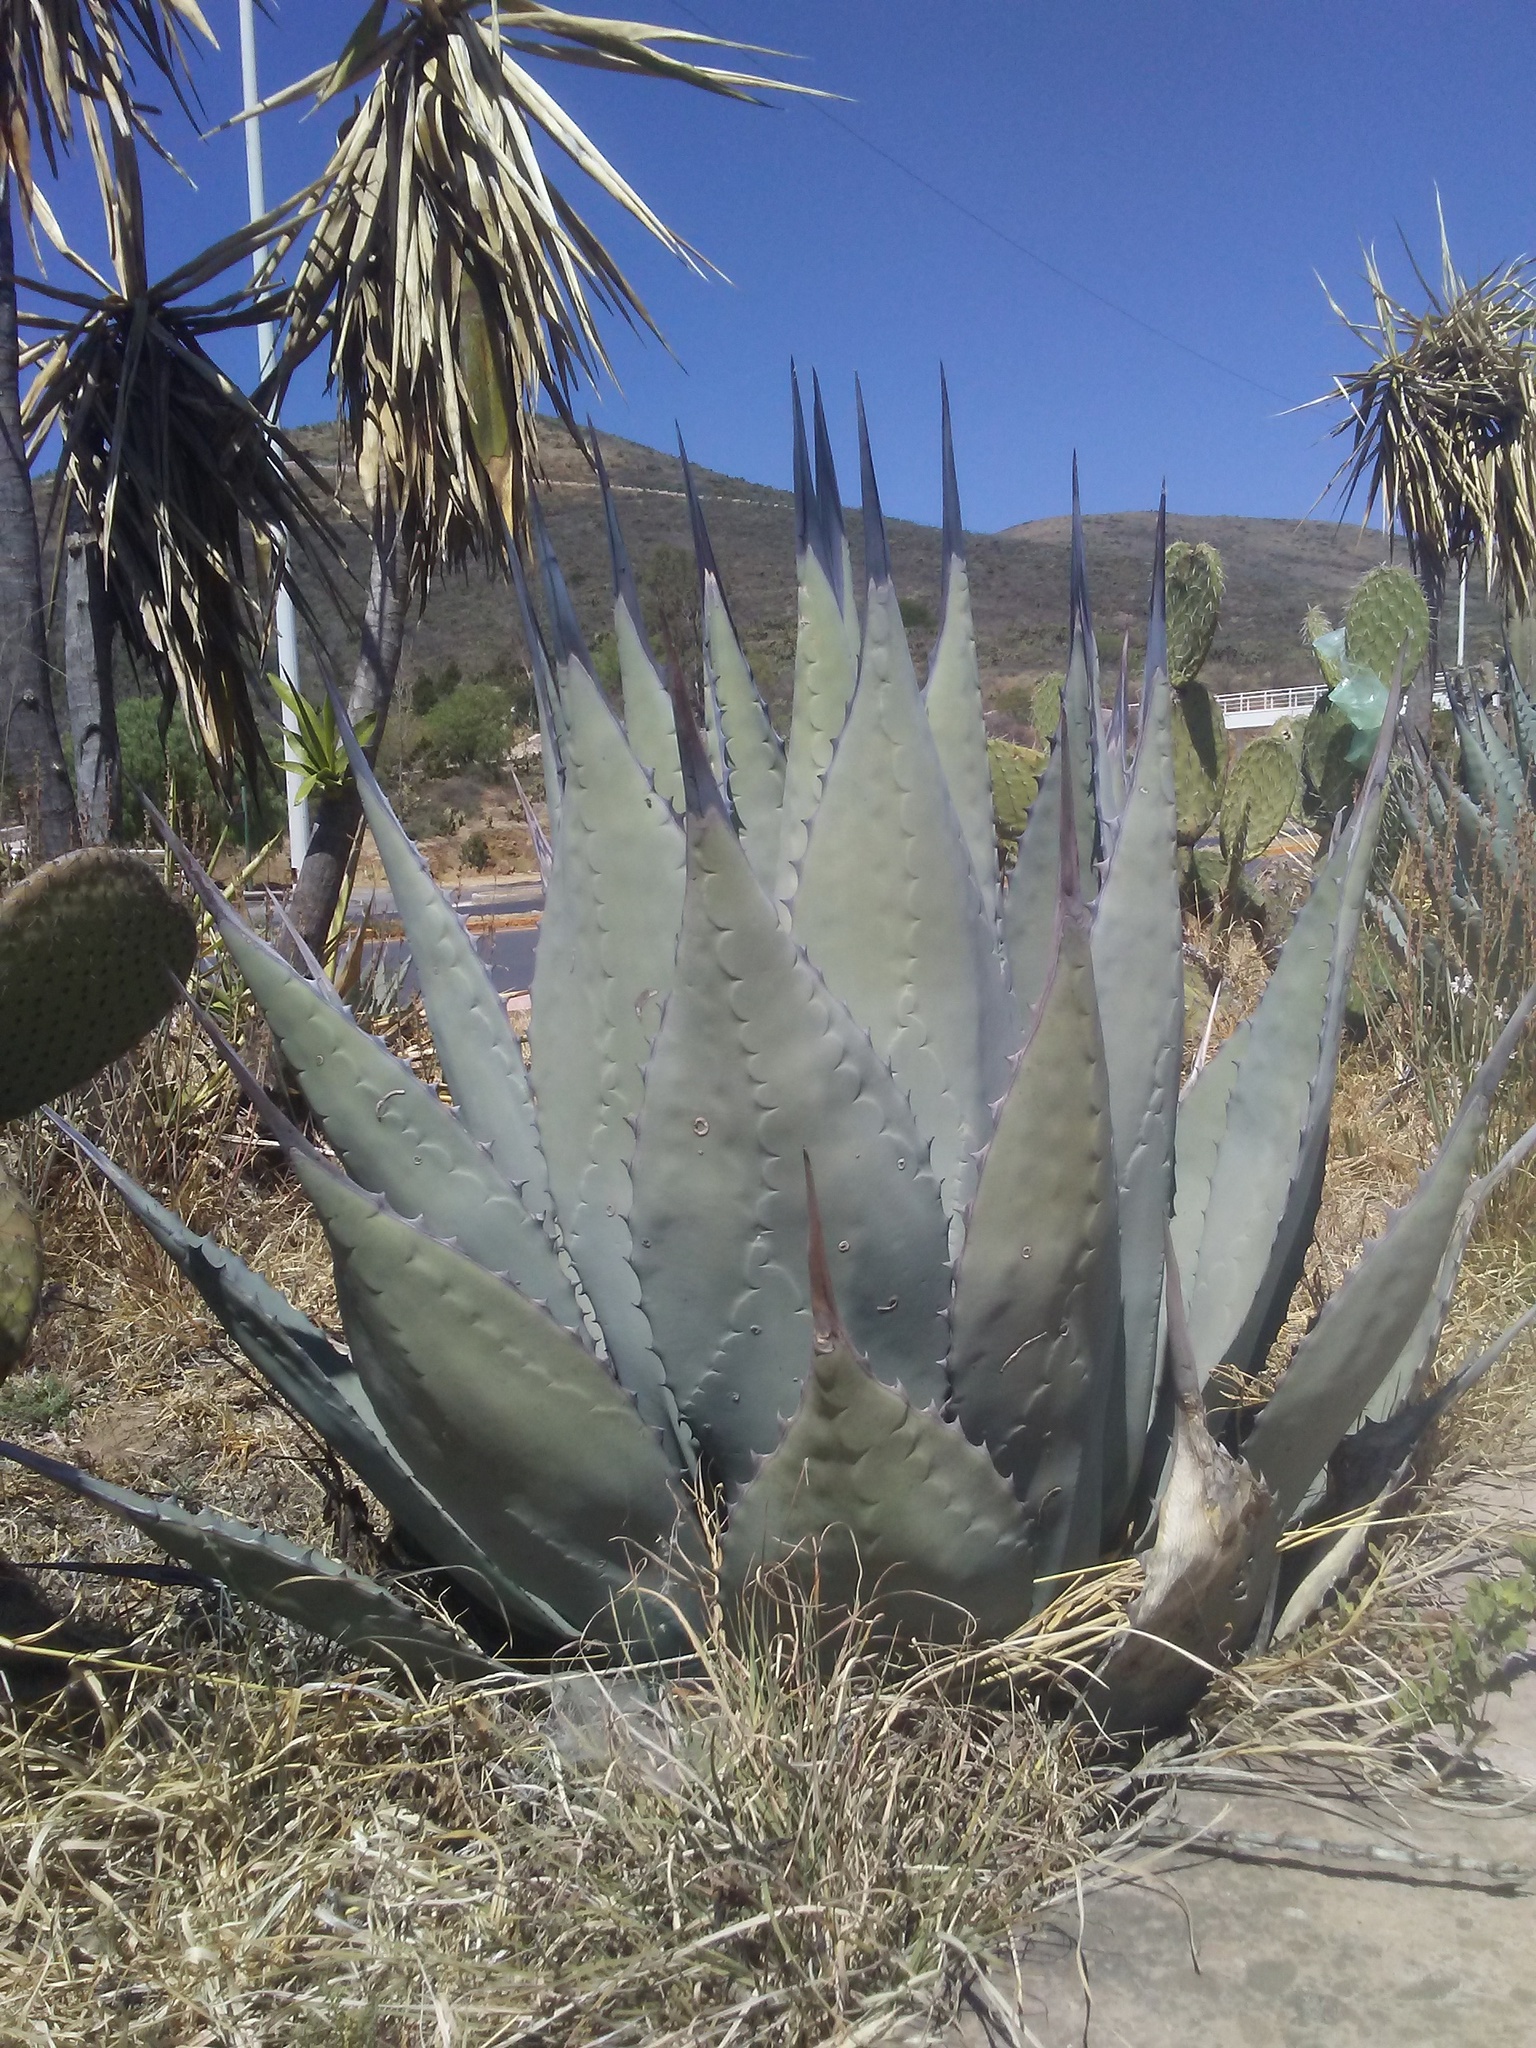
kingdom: Plantae
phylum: Tracheophyta
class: Liliopsida
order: Asparagales
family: Asparagaceae
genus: Agave
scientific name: Agave applanata
